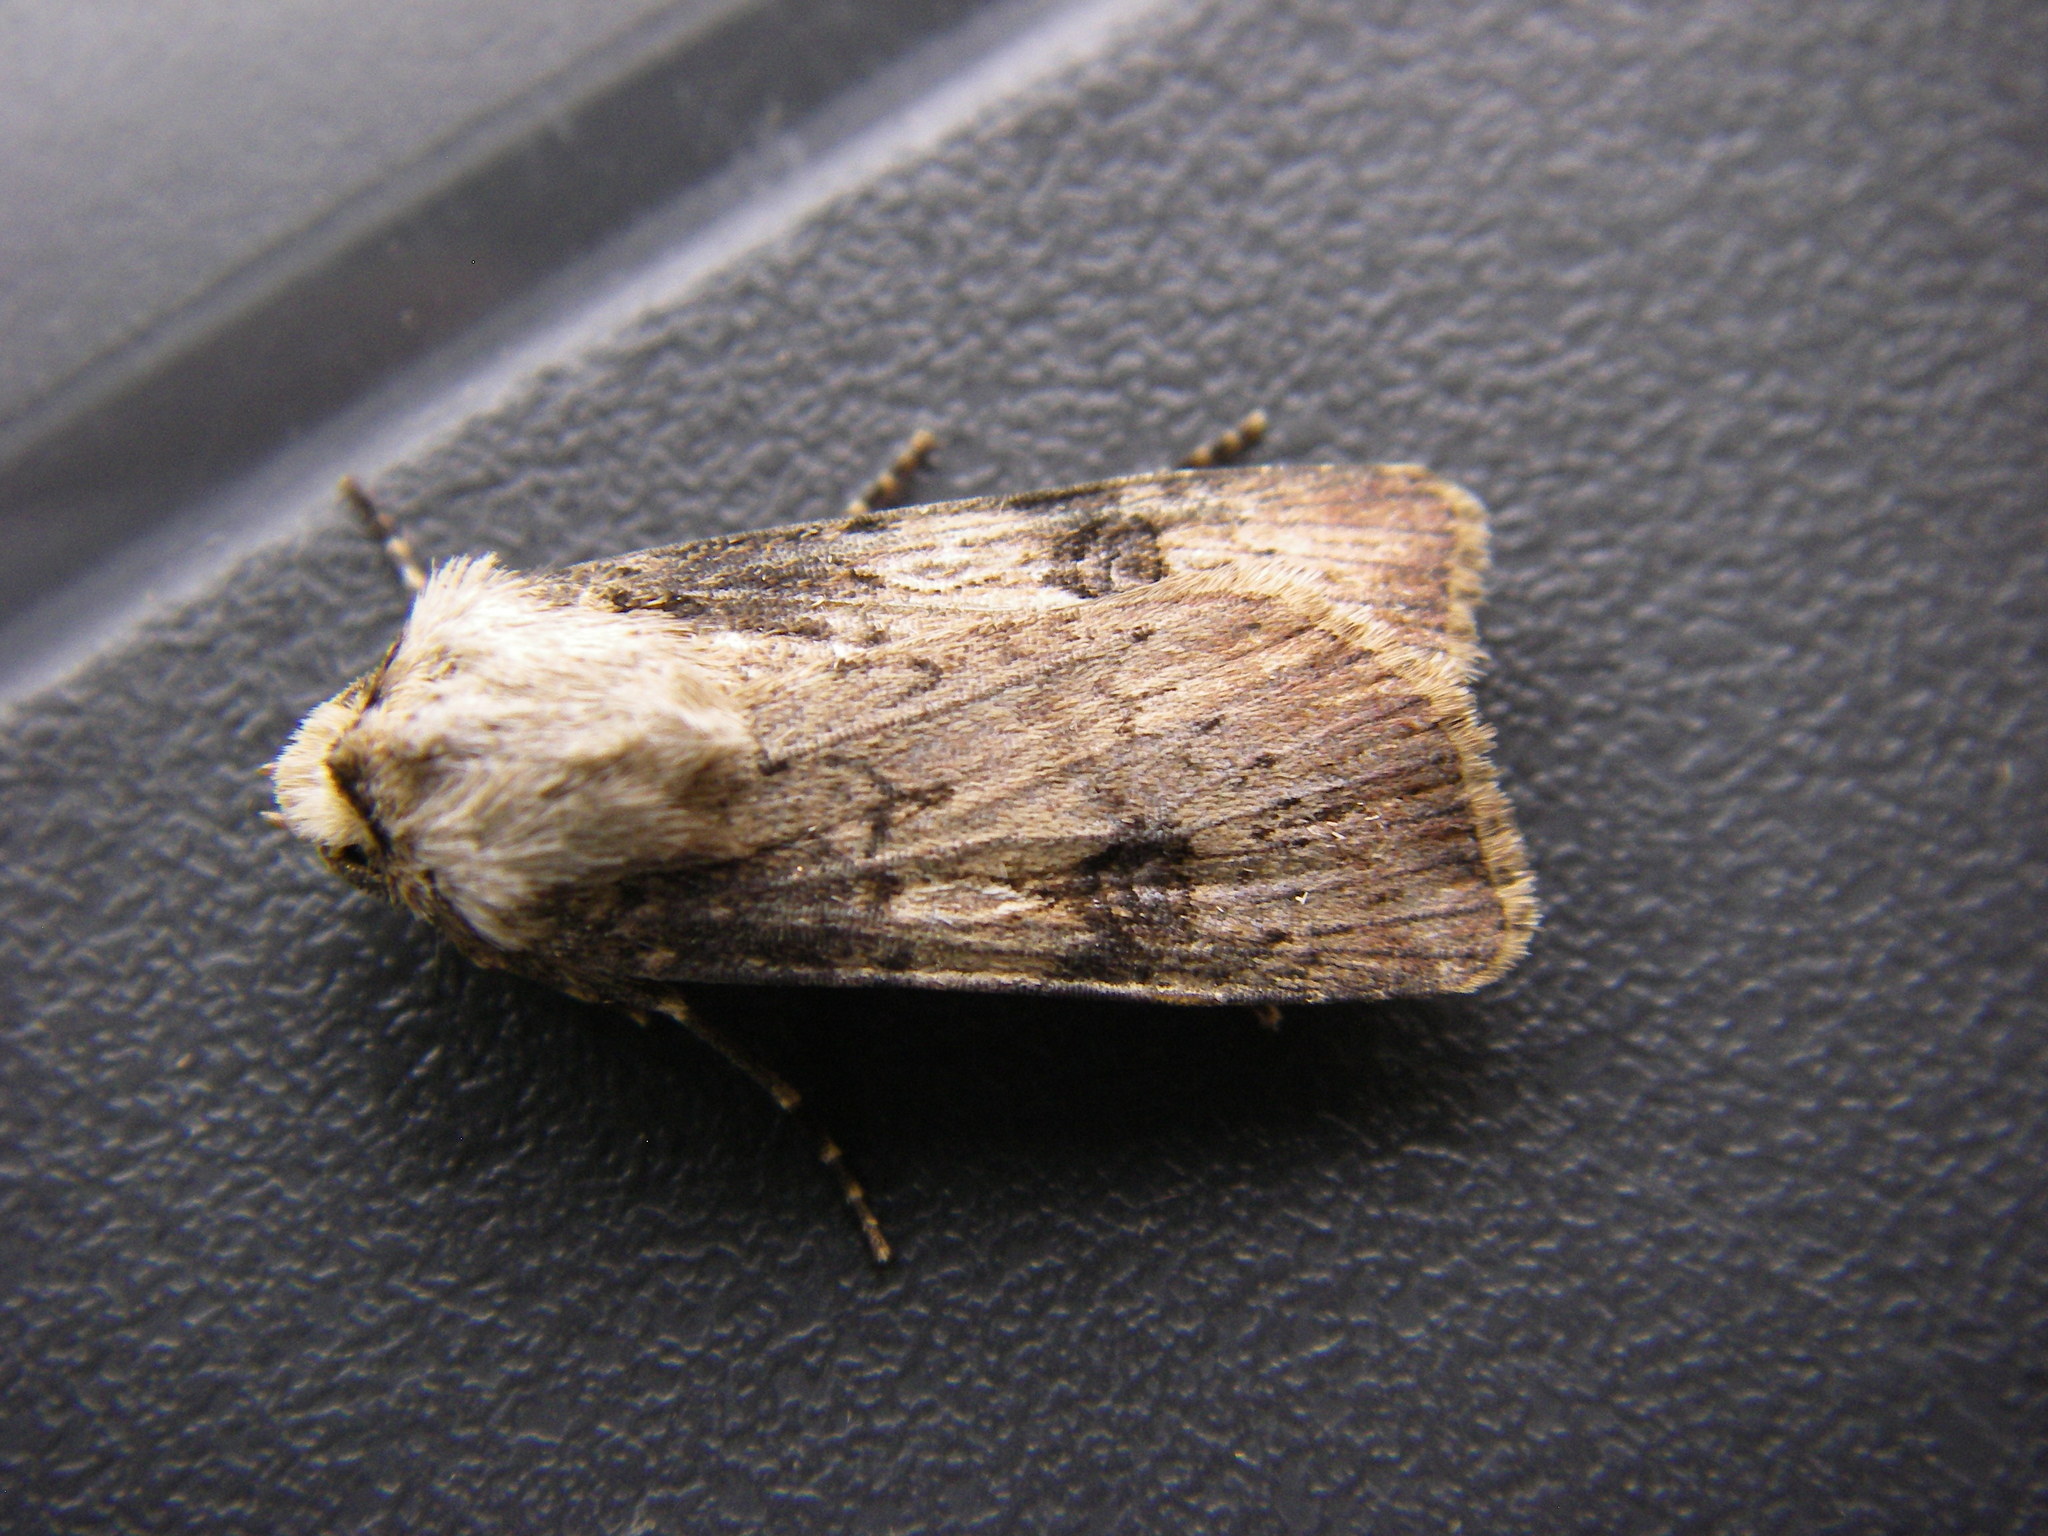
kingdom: Animalia
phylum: Arthropoda
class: Insecta
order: Lepidoptera
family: Noctuidae
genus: Agrotis
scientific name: Agrotis puta
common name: Shuttle-shaped dart
